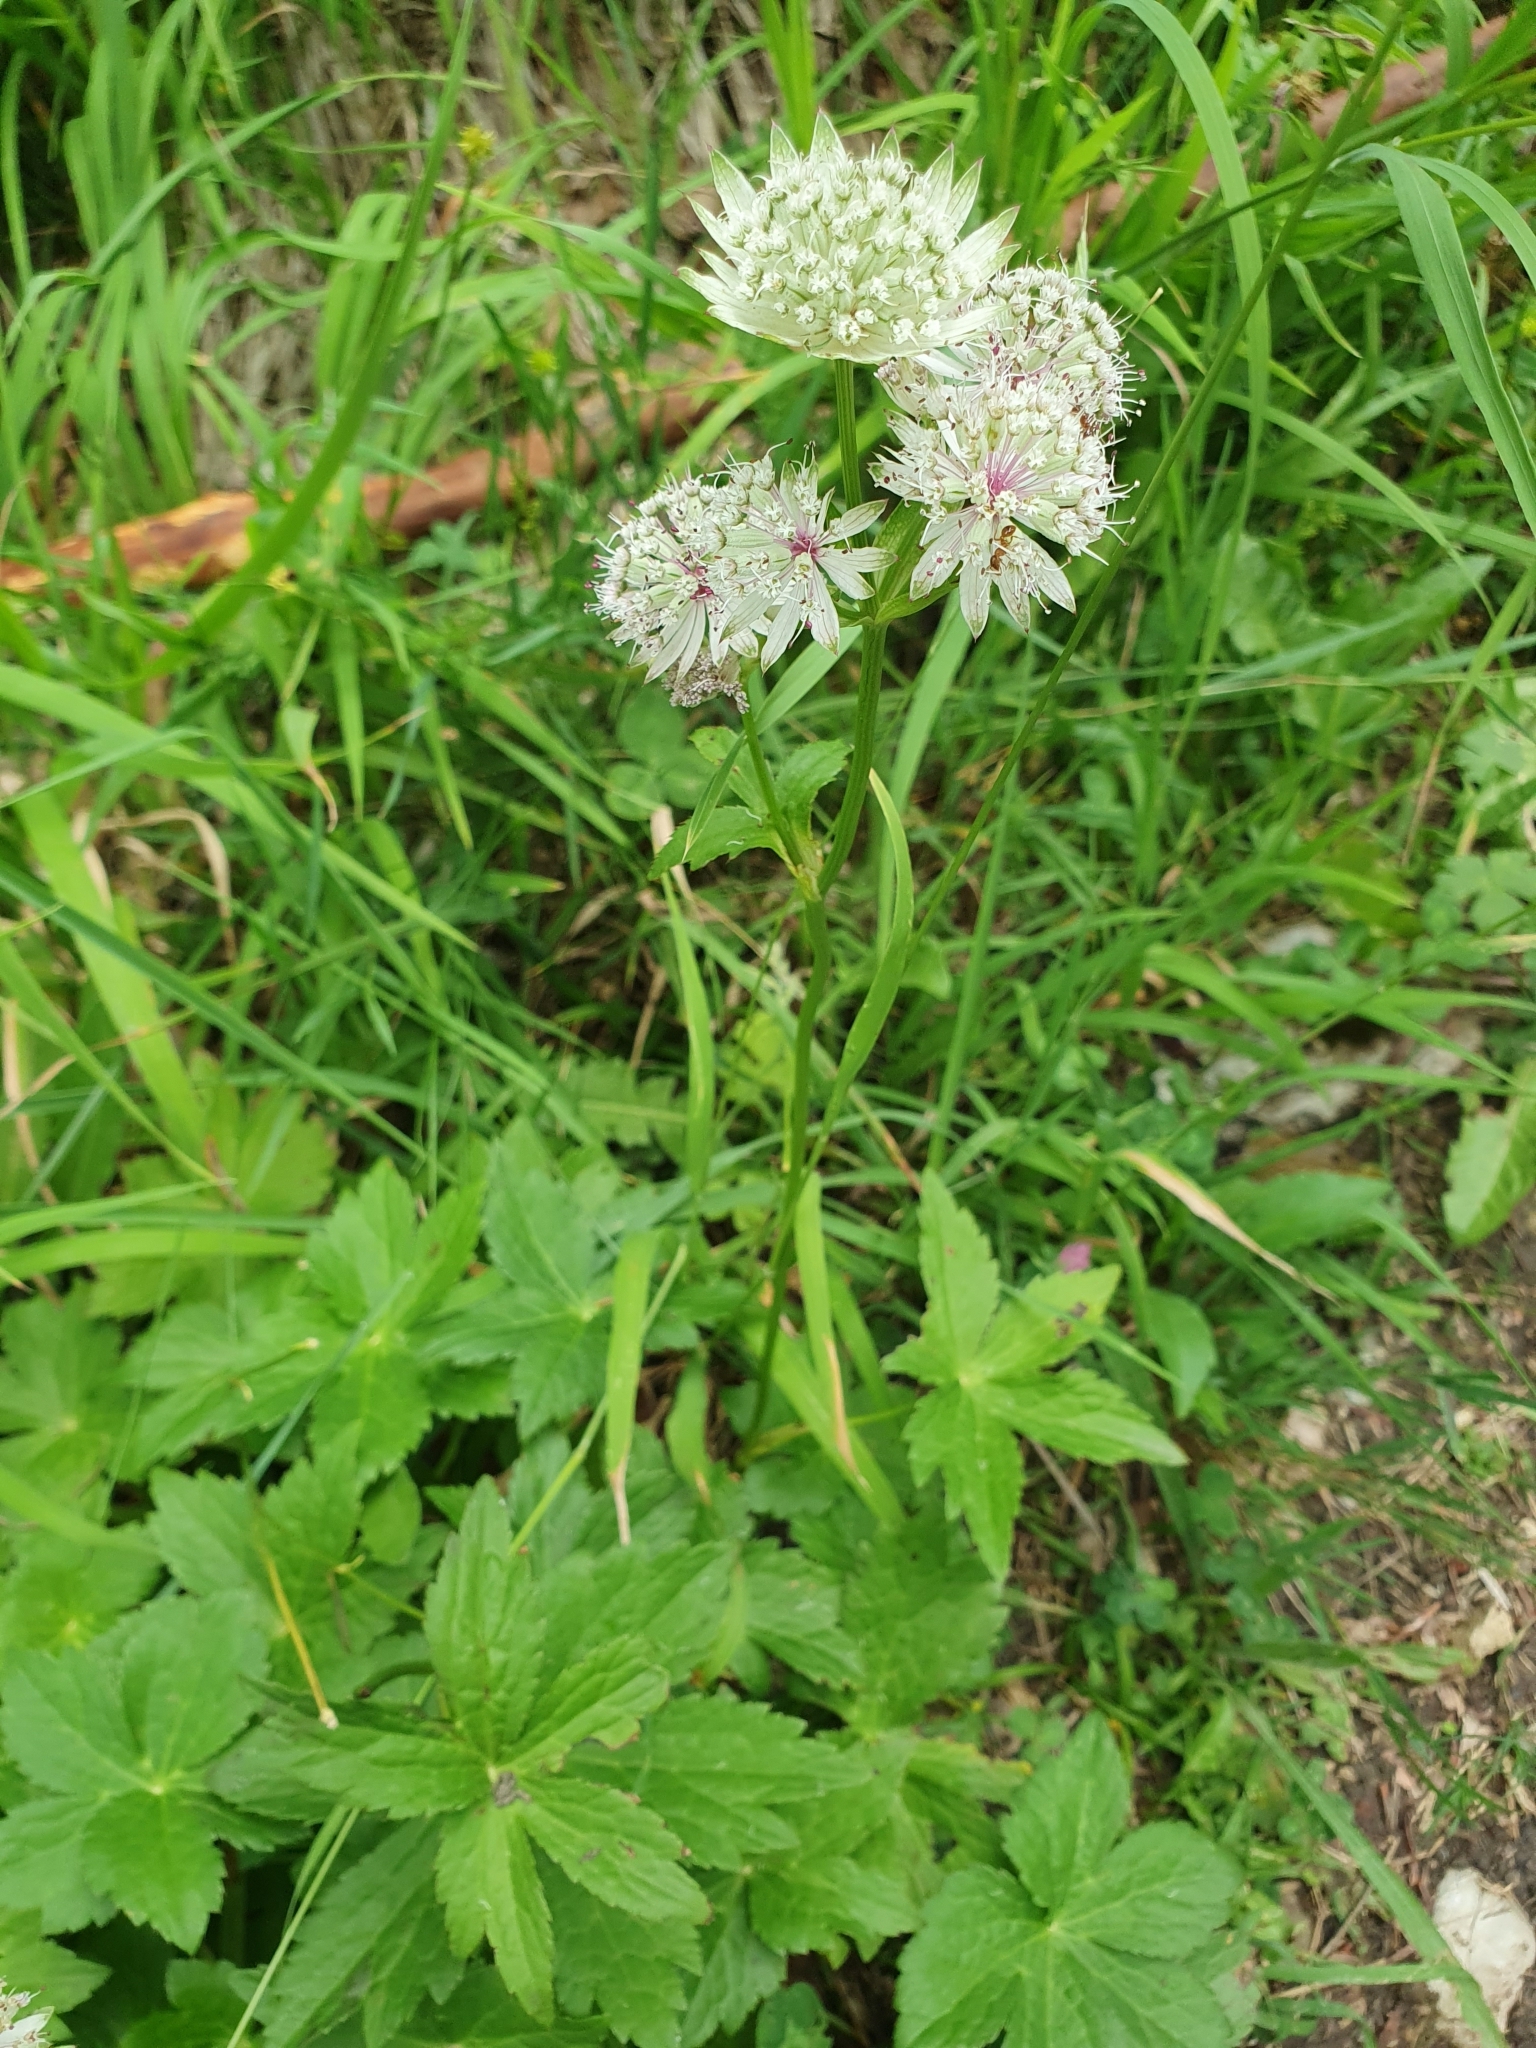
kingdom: Plantae
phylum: Tracheophyta
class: Magnoliopsida
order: Apiales
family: Apiaceae
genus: Astrantia
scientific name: Astrantia major
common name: Greater masterwort
